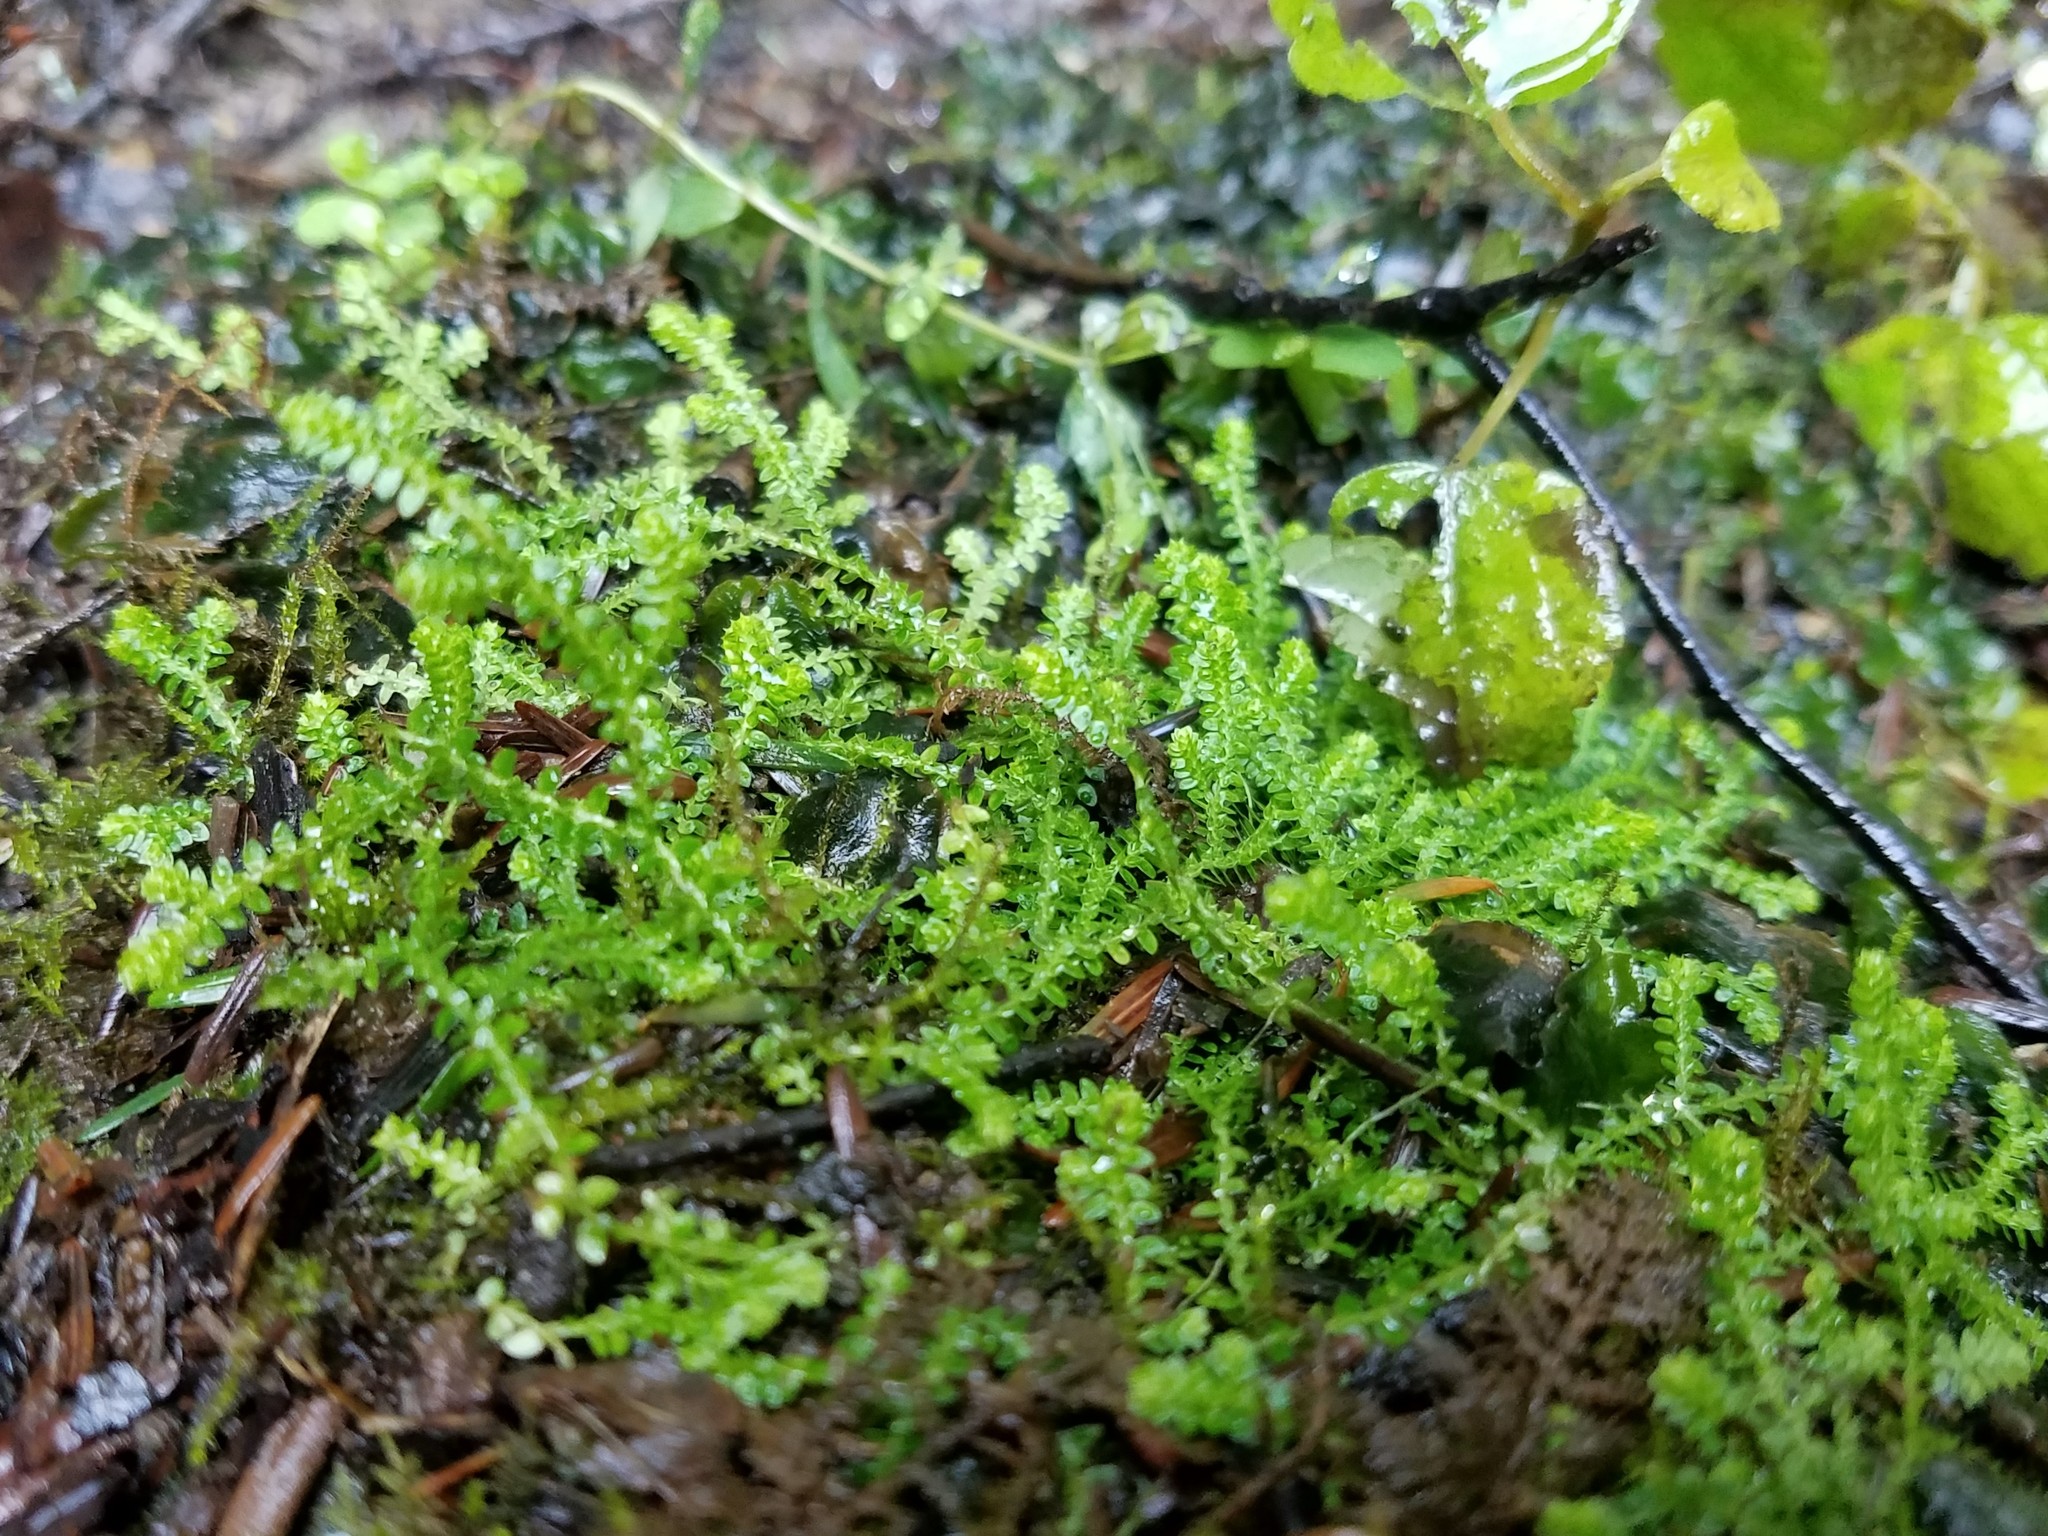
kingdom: Plantae
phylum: Tracheophyta
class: Lycopodiopsida
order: Selaginellales
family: Selaginellaceae
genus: Selaginella
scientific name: Selaginella apoda
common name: Creeping spikemoss
